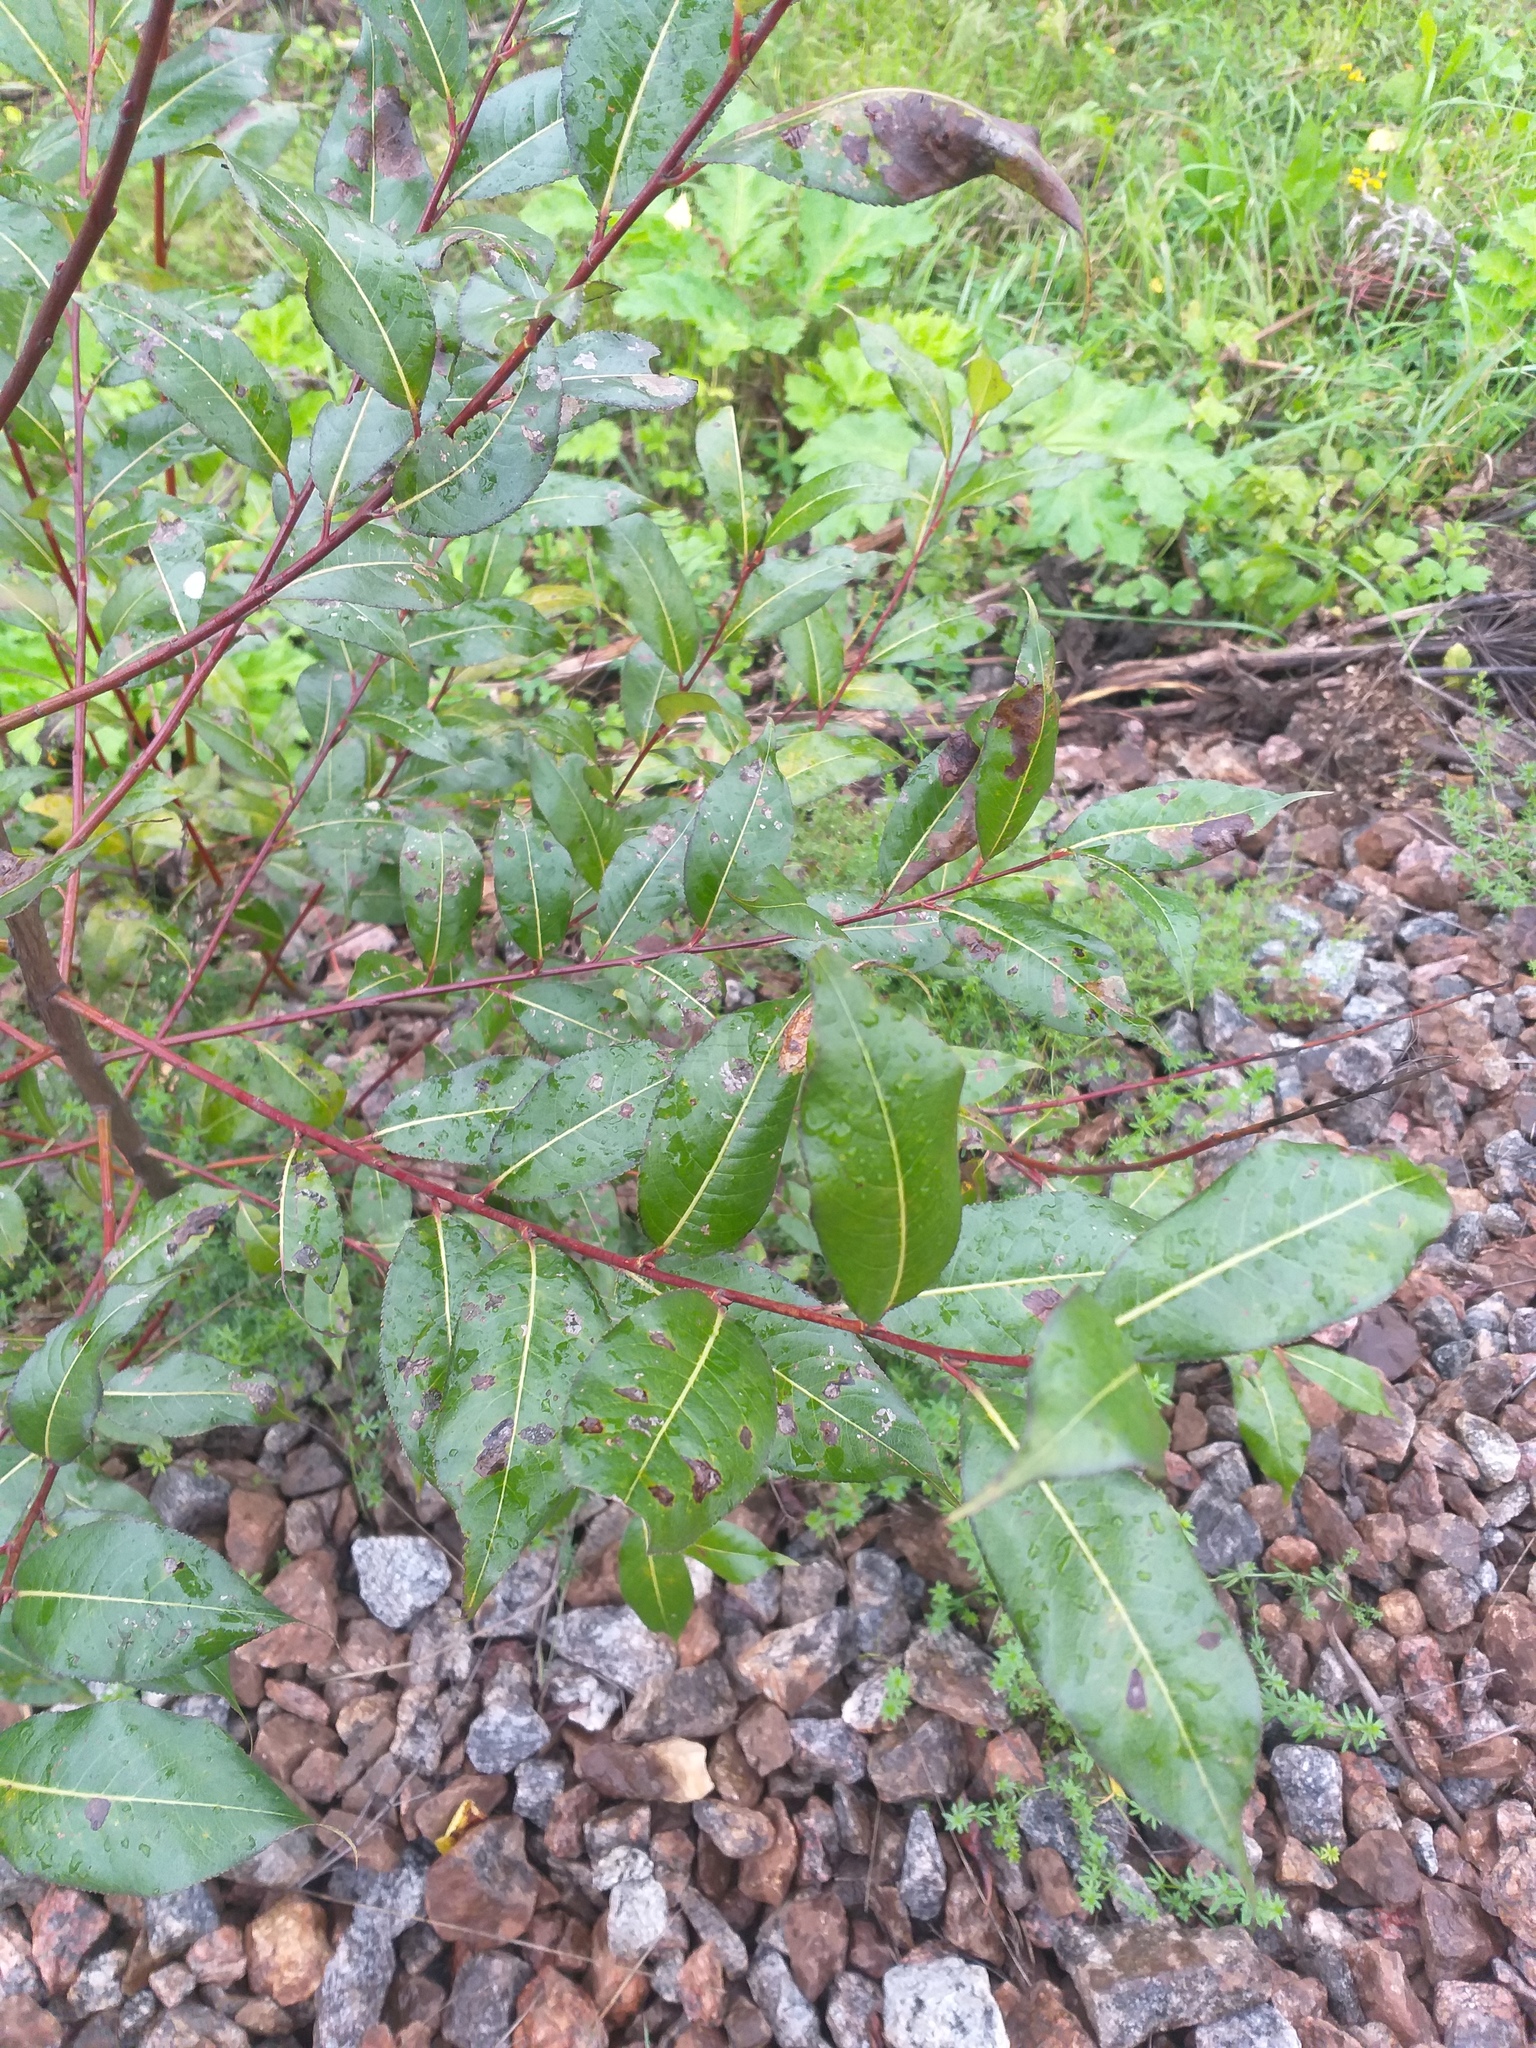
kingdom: Plantae
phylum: Tracheophyta
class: Magnoliopsida
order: Malpighiales
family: Salicaceae
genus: Salix
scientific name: Salix pentandra
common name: Bay willow
